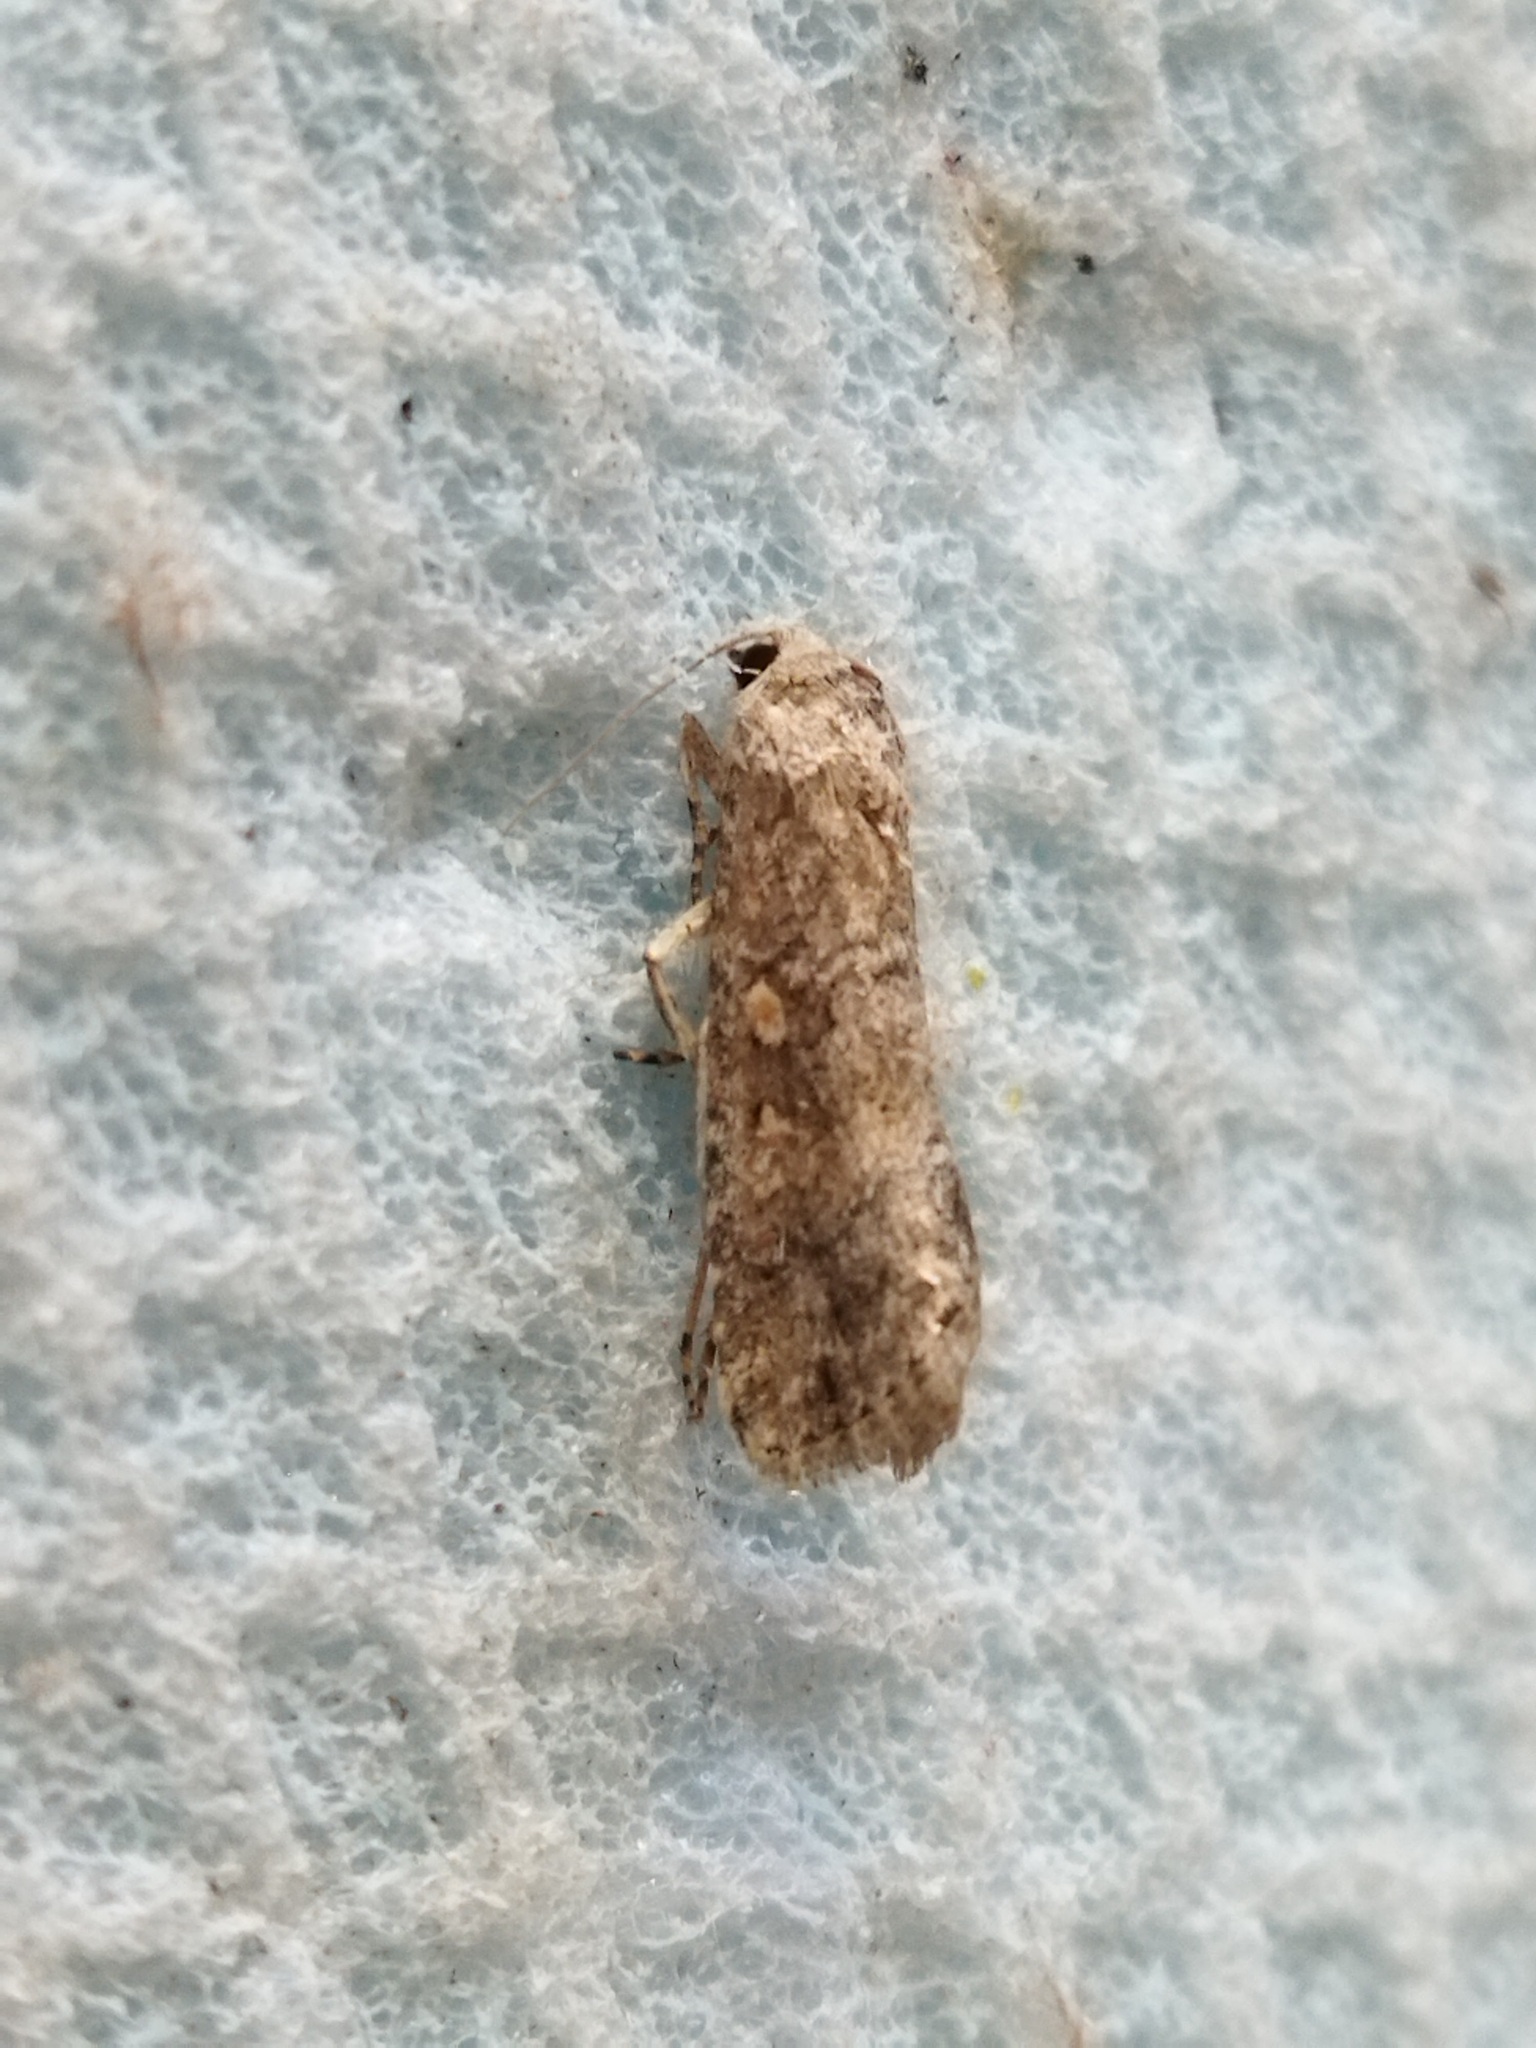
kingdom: Animalia
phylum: Arthropoda
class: Insecta
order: Lepidoptera
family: Noctuidae
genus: Spodoptera
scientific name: Spodoptera exigua
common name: Beet armyworm
